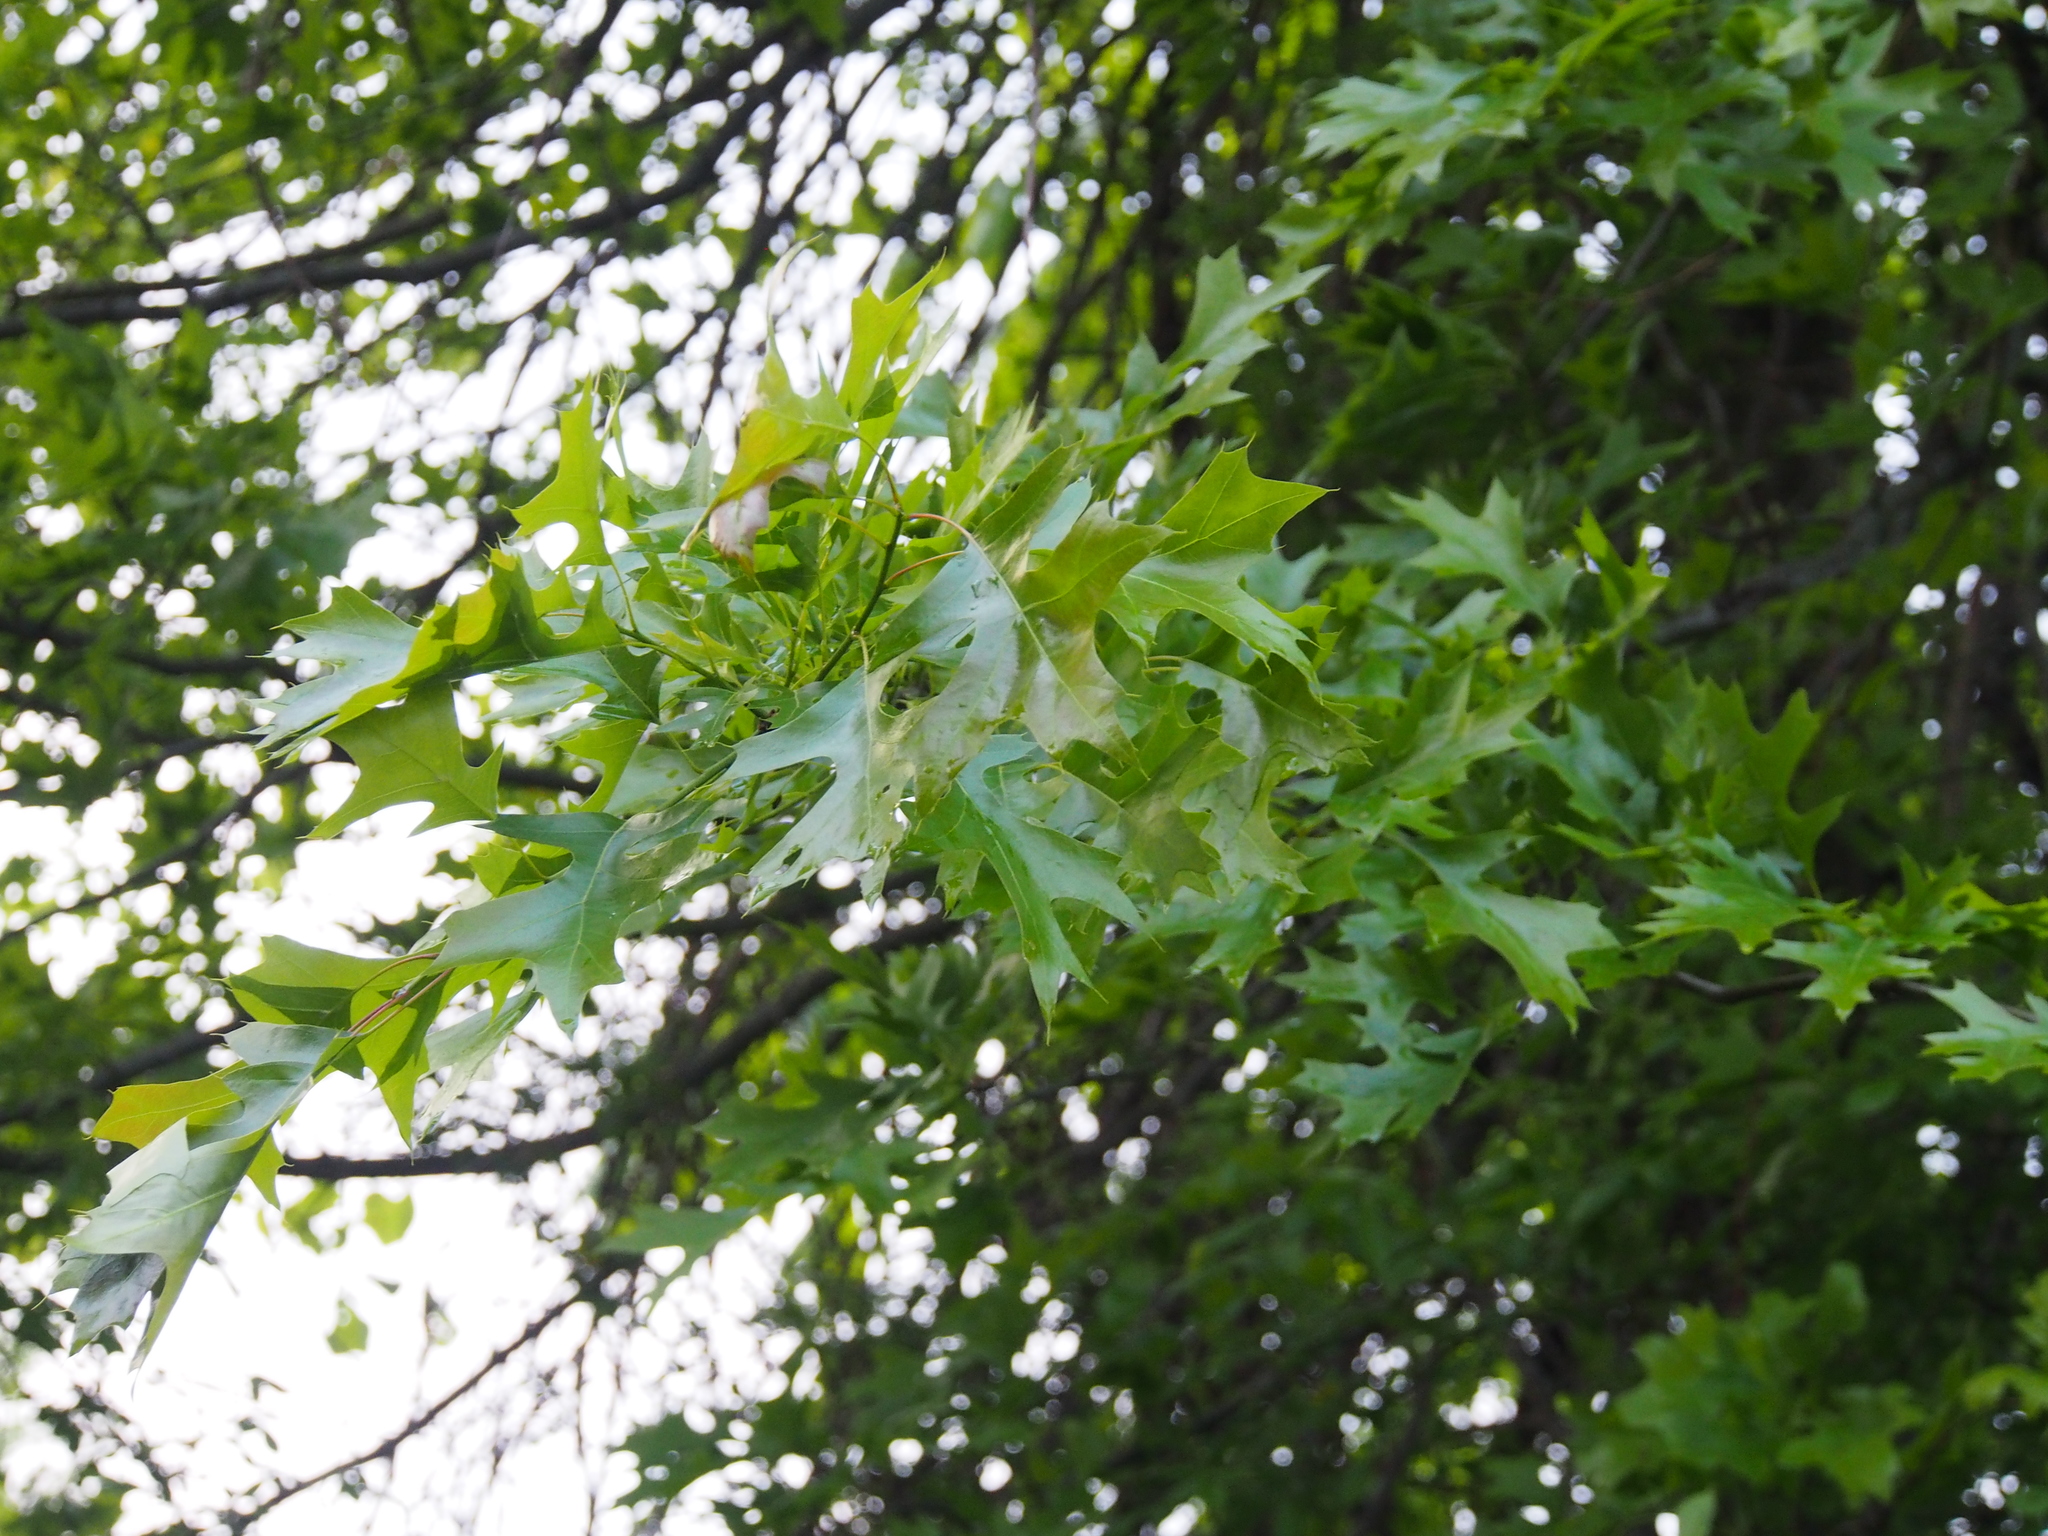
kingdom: Plantae
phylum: Tracheophyta
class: Magnoliopsida
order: Fagales
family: Fagaceae
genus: Quercus
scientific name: Quercus palustris
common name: Pin oak
